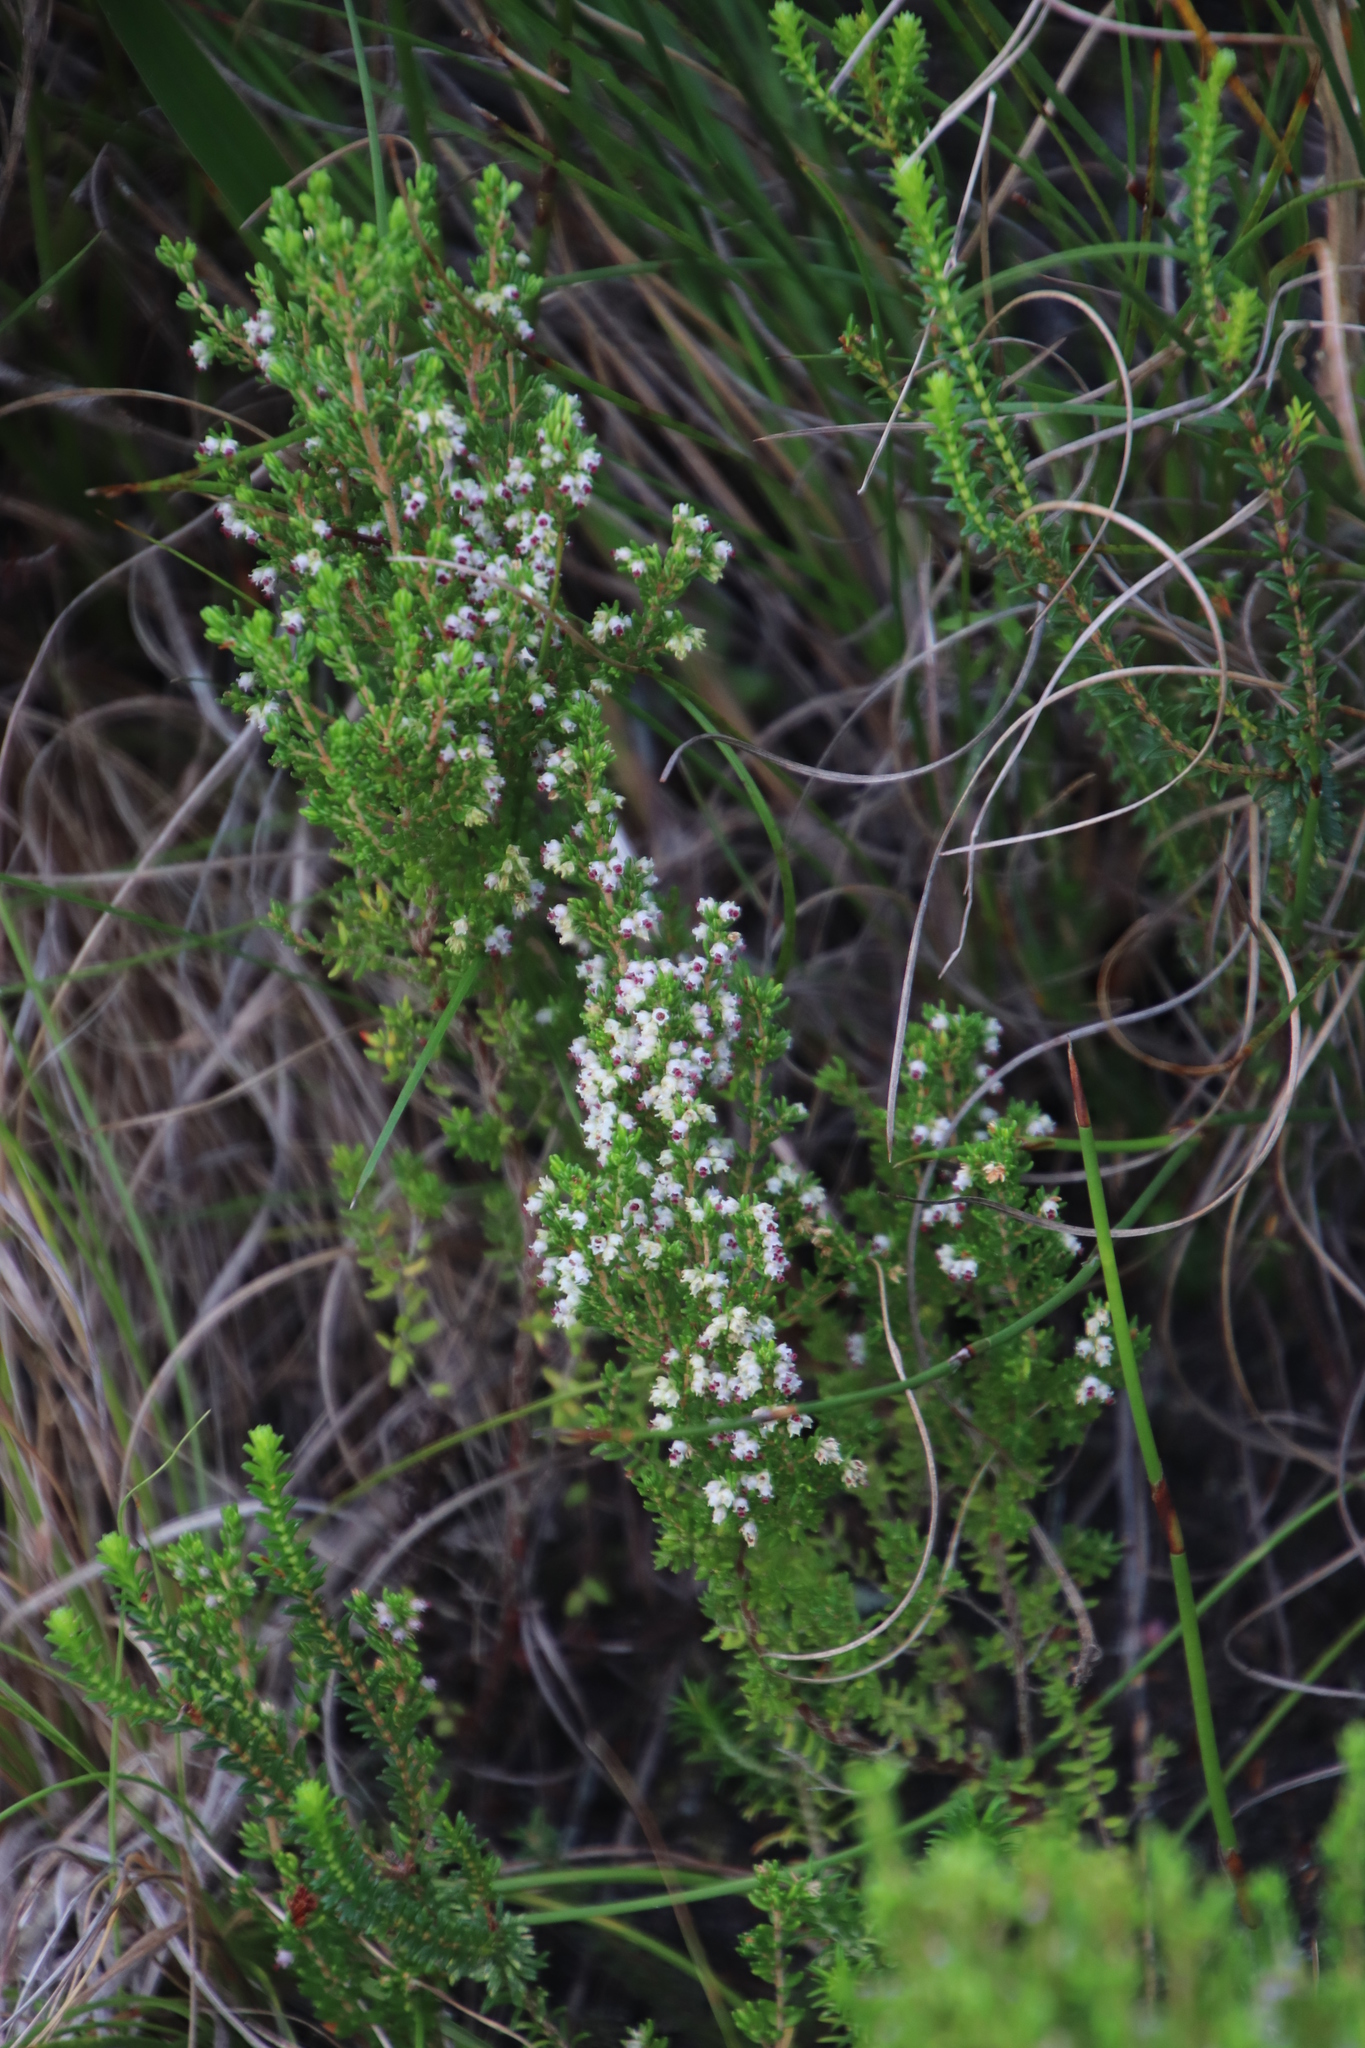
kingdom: Plantae
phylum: Tracheophyta
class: Magnoliopsida
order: Ericales
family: Ericaceae
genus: Erica
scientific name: Erica hispidula
